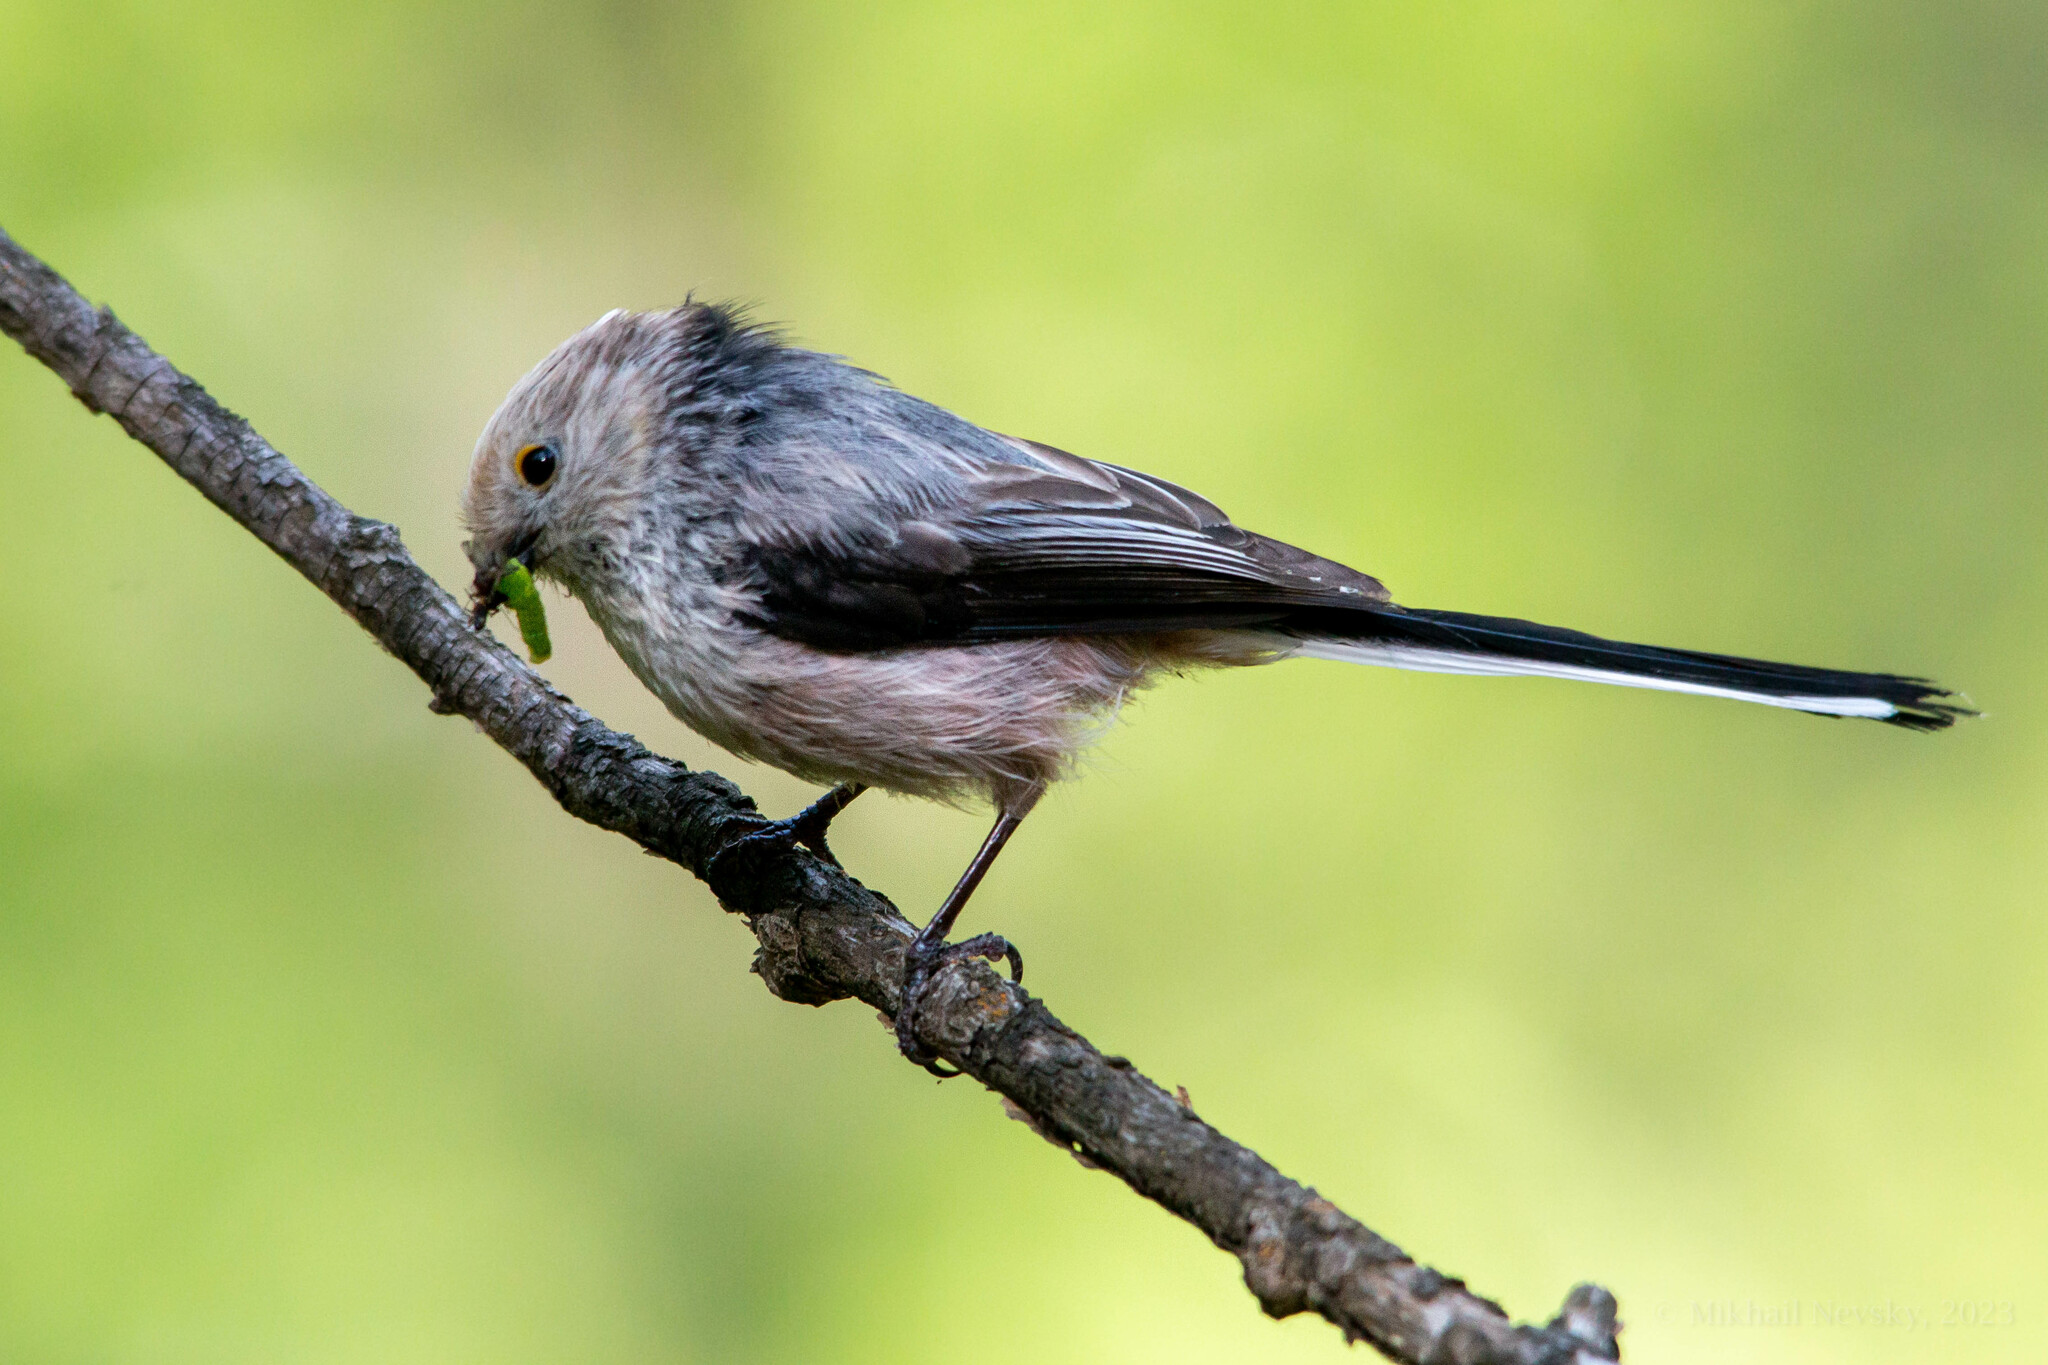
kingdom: Animalia
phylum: Chordata
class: Aves
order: Passeriformes
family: Aegithalidae
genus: Aegithalos
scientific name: Aegithalos caudatus
